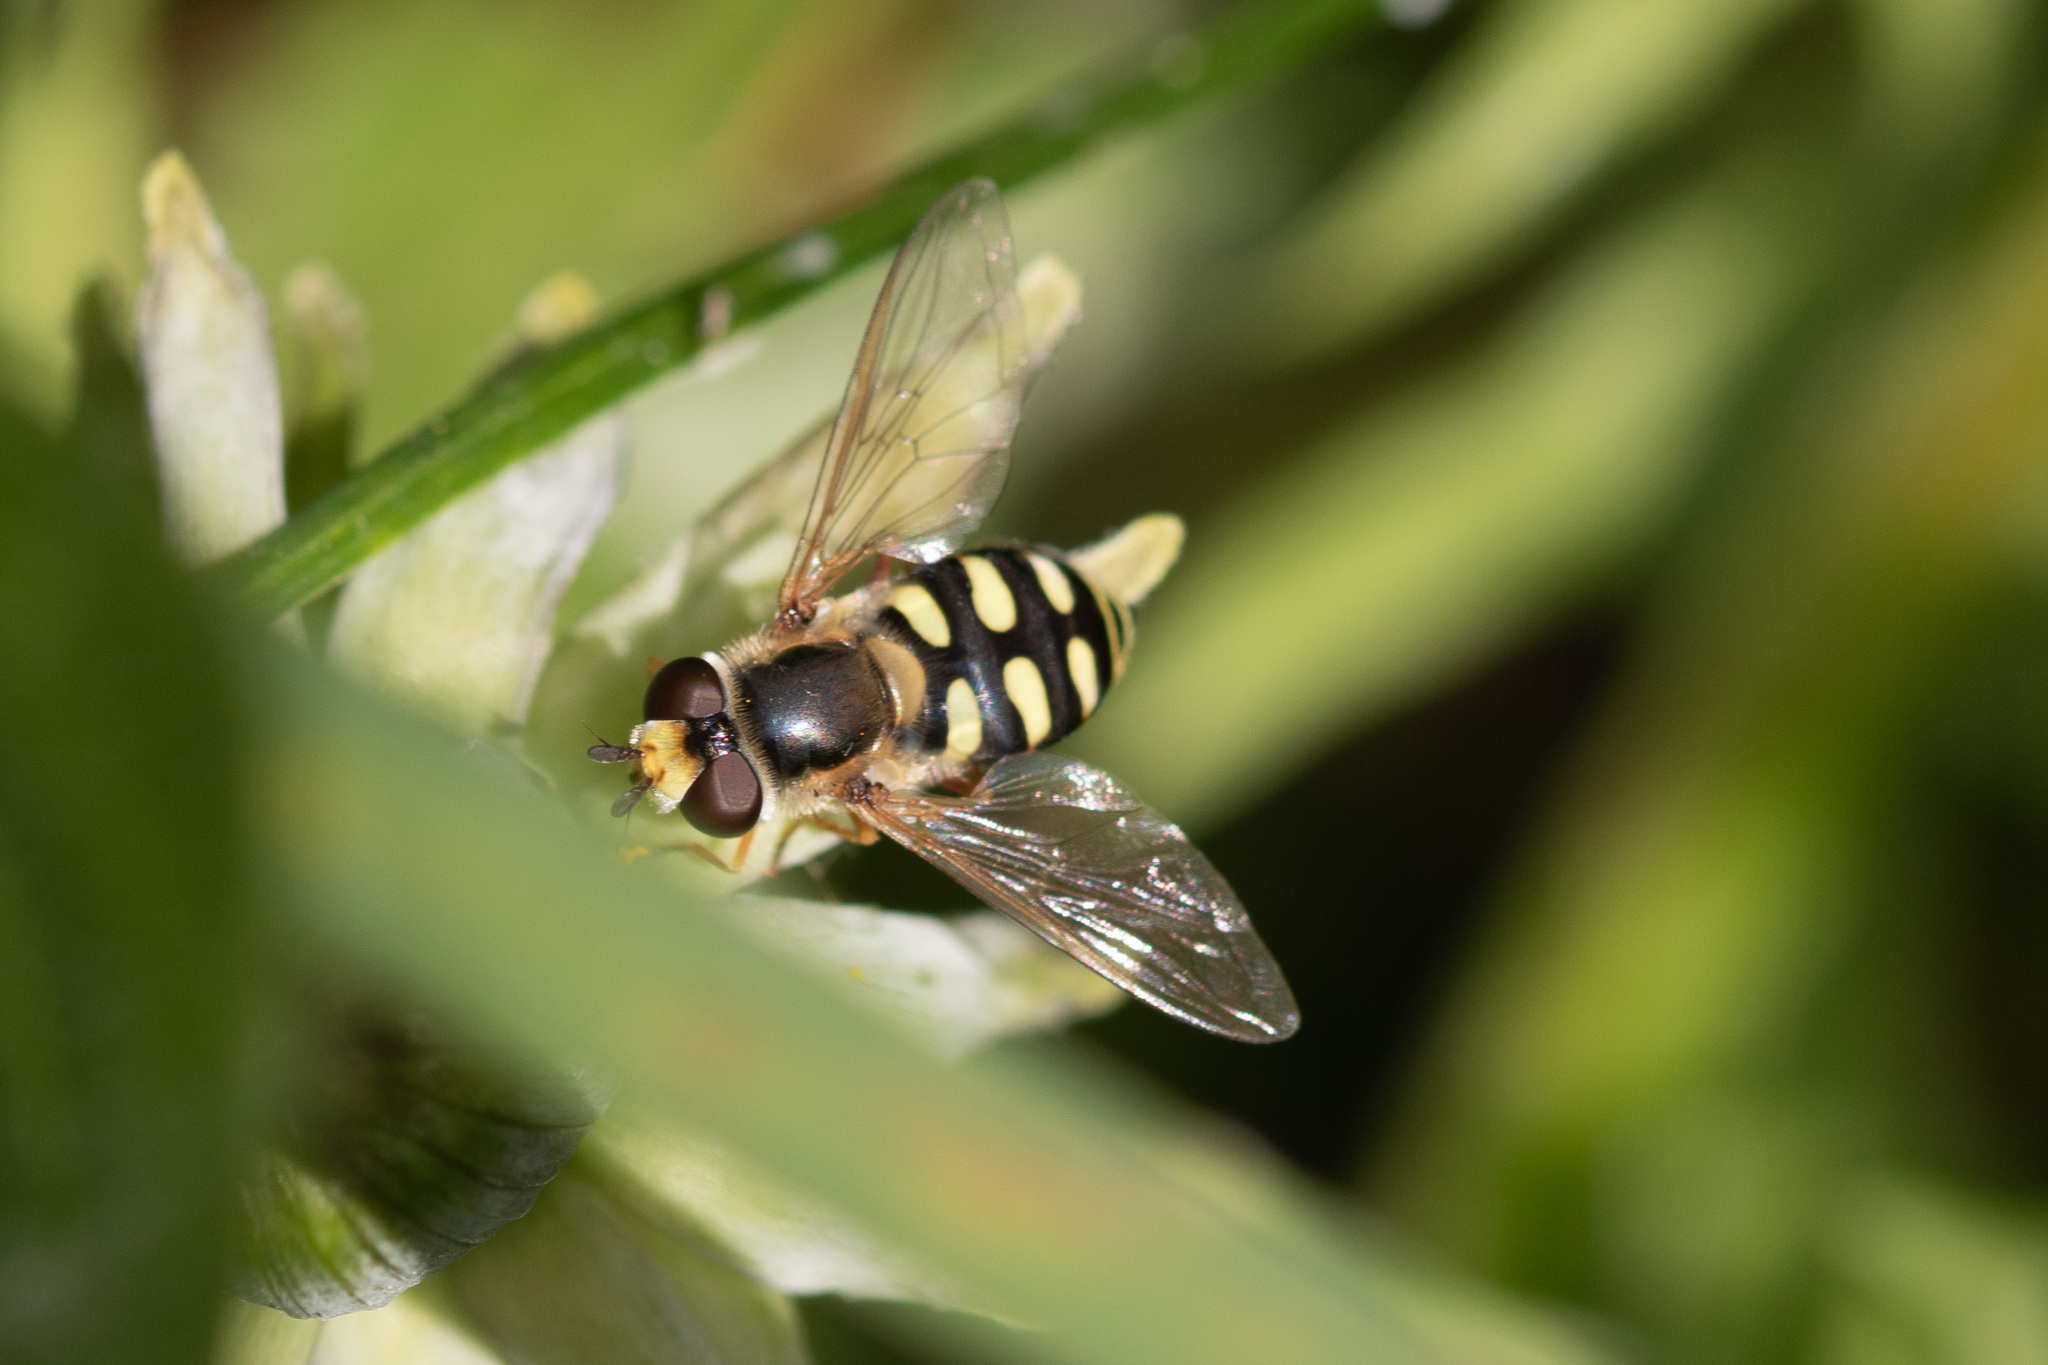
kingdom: Animalia
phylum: Arthropoda
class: Insecta
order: Diptera
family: Syrphidae
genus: Eupeodes
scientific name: Eupeodes corollae
